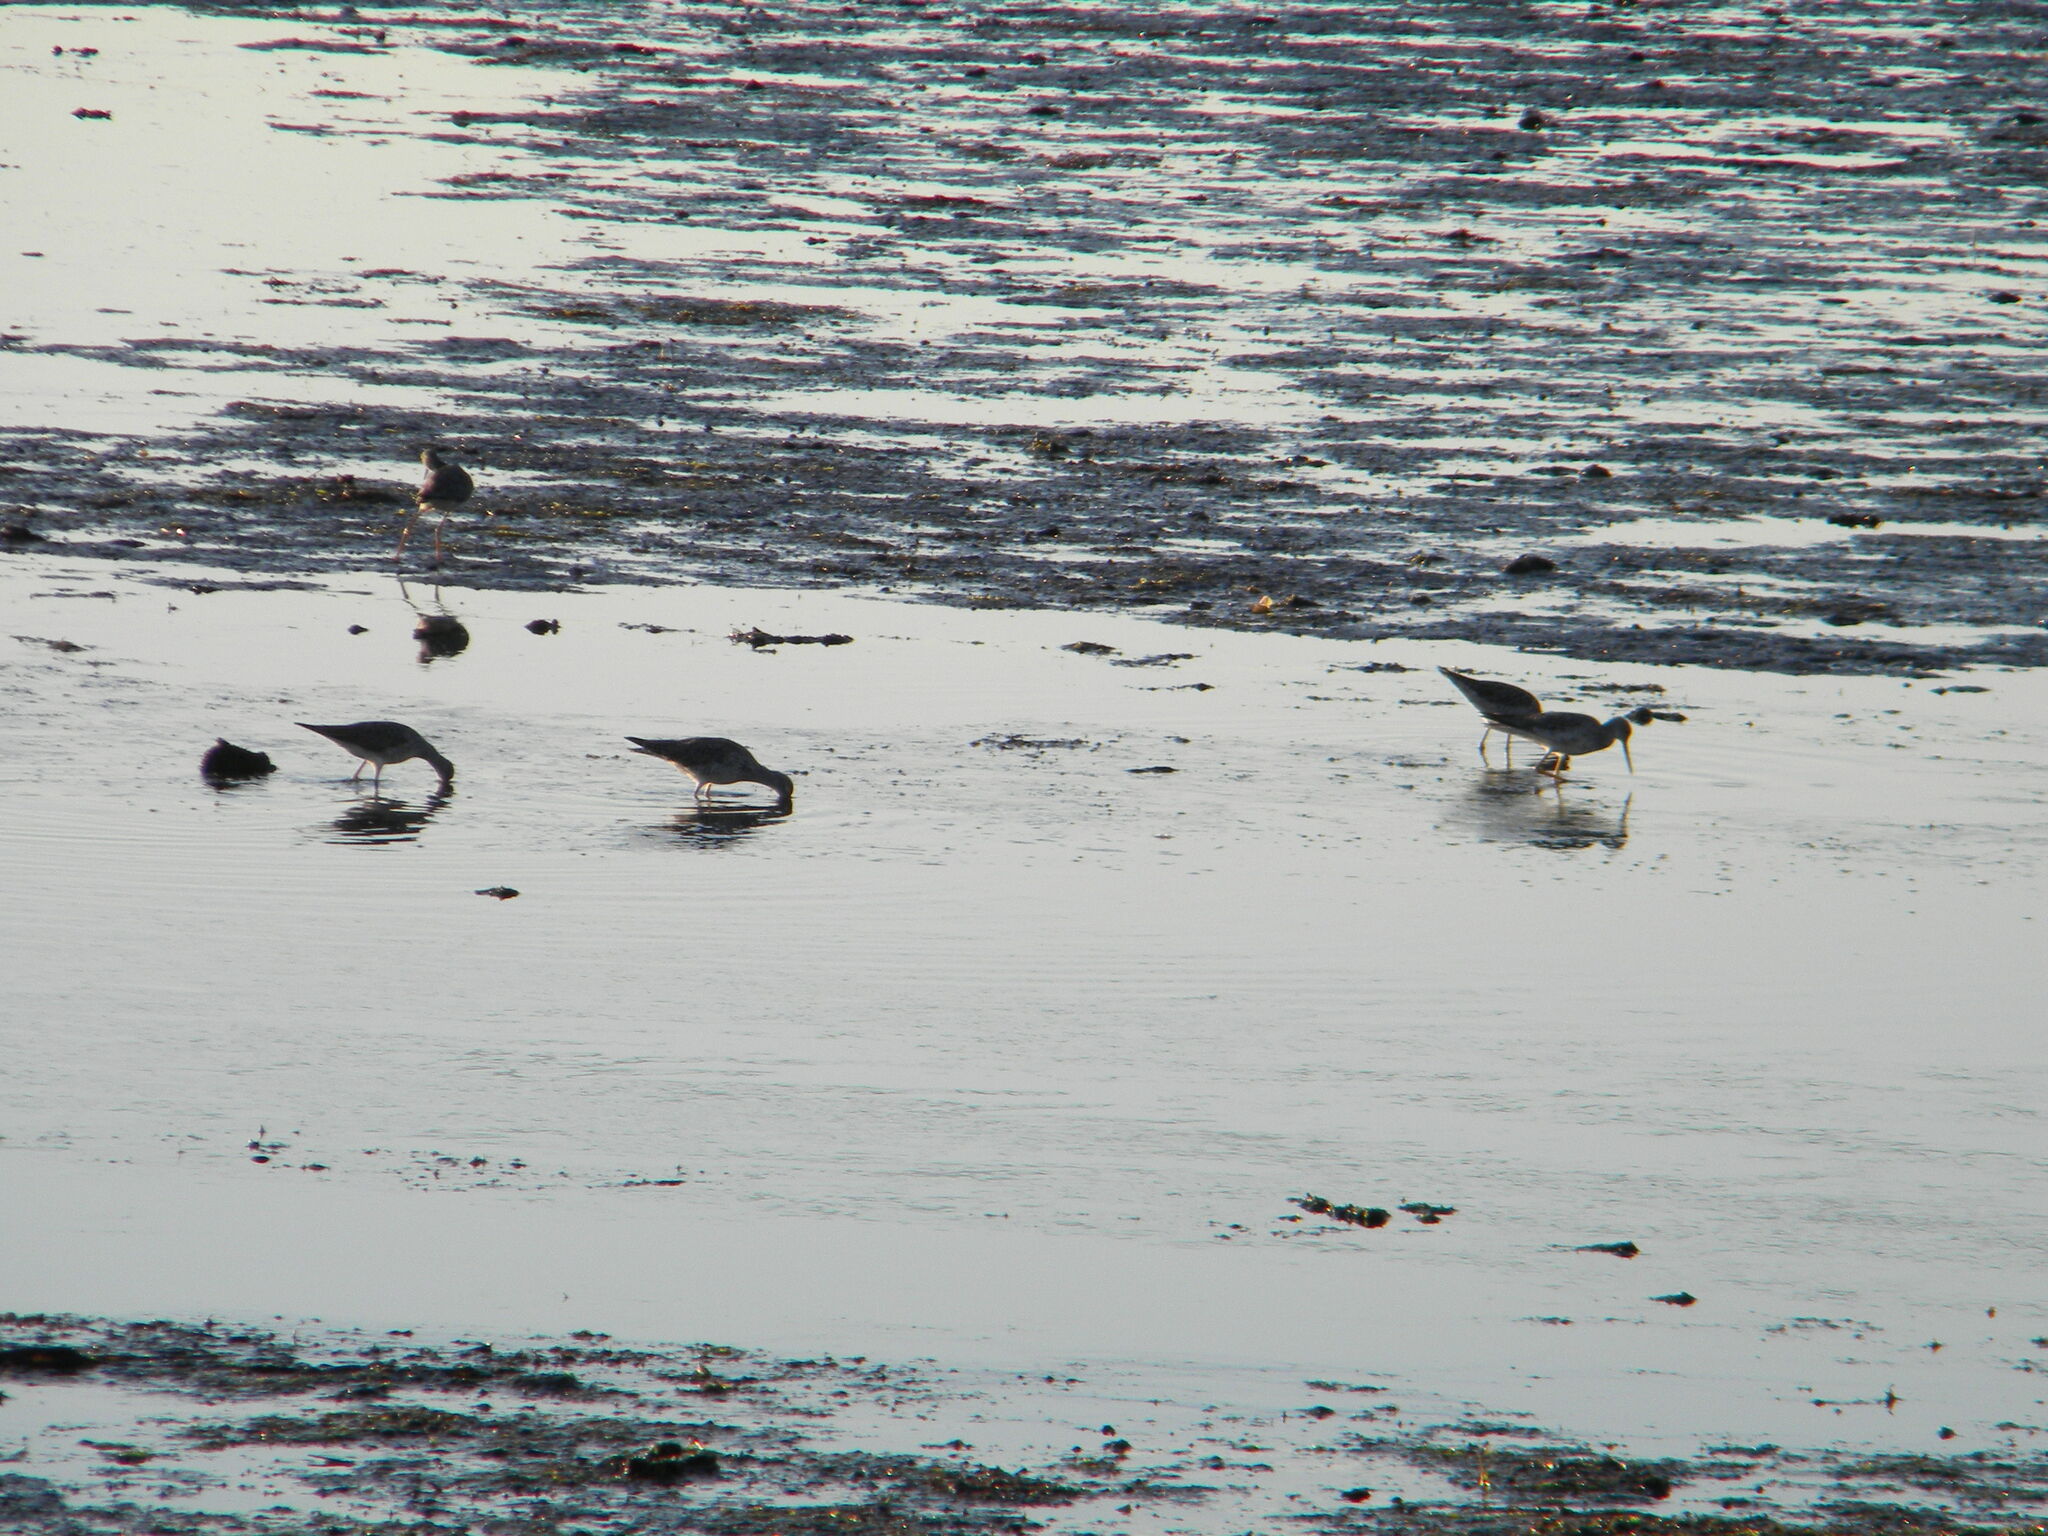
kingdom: Animalia
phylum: Chordata
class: Aves
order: Charadriiformes
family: Scolopacidae
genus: Tringa
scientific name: Tringa melanoleuca
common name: Greater yellowlegs
